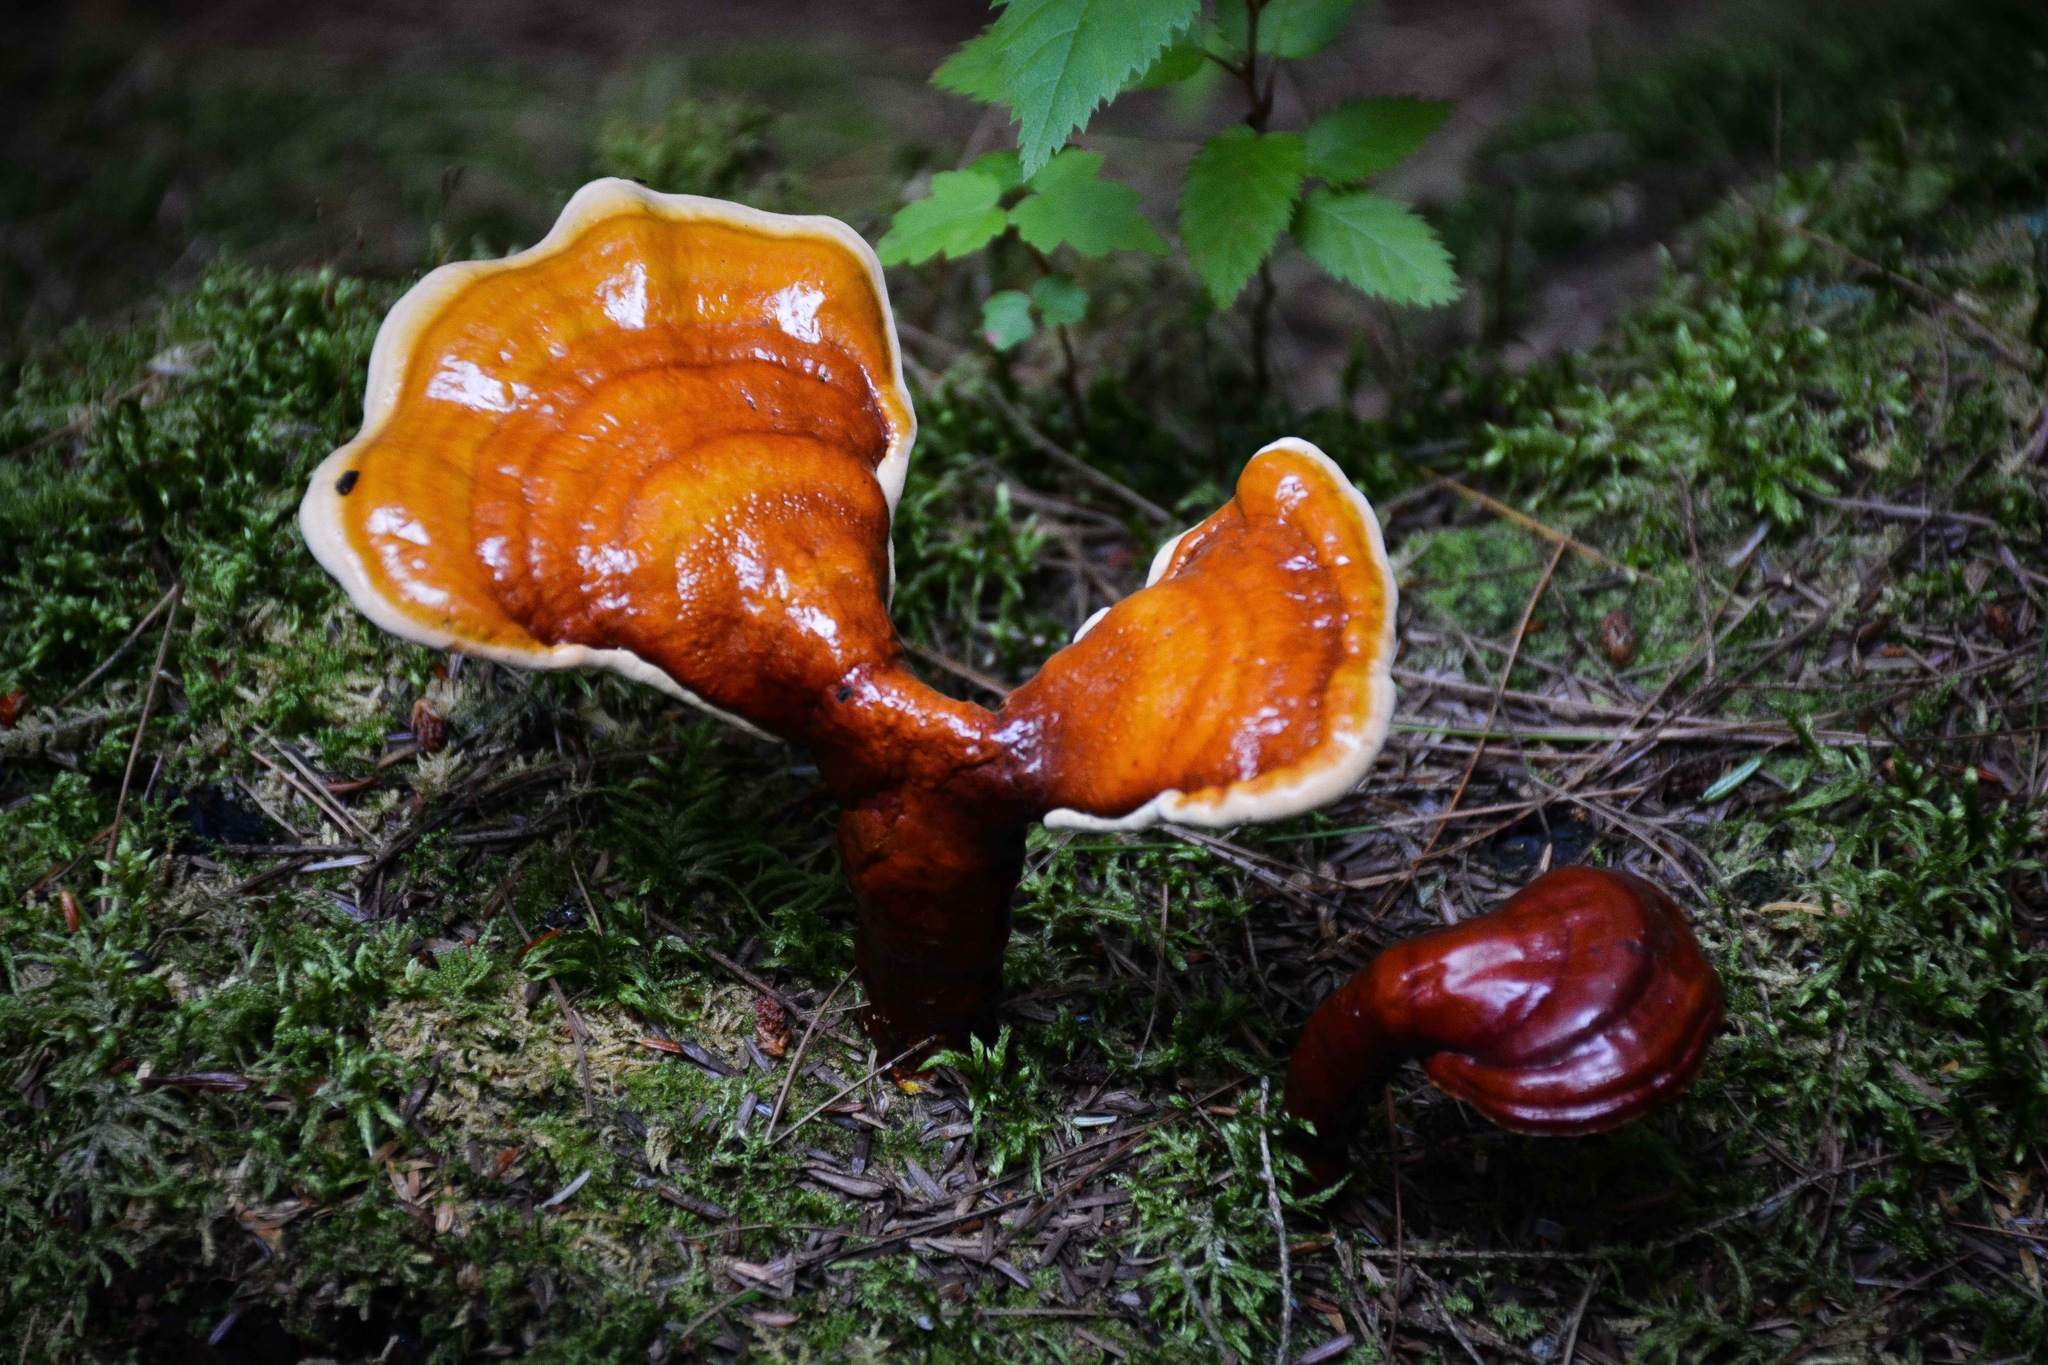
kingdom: Fungi
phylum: Basidiomycota
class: Agaricomycetes
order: Polyporales
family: Polyporaceae
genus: Ganoderma
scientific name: Ganoderma tsugae
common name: Hemlock varnish shelf
